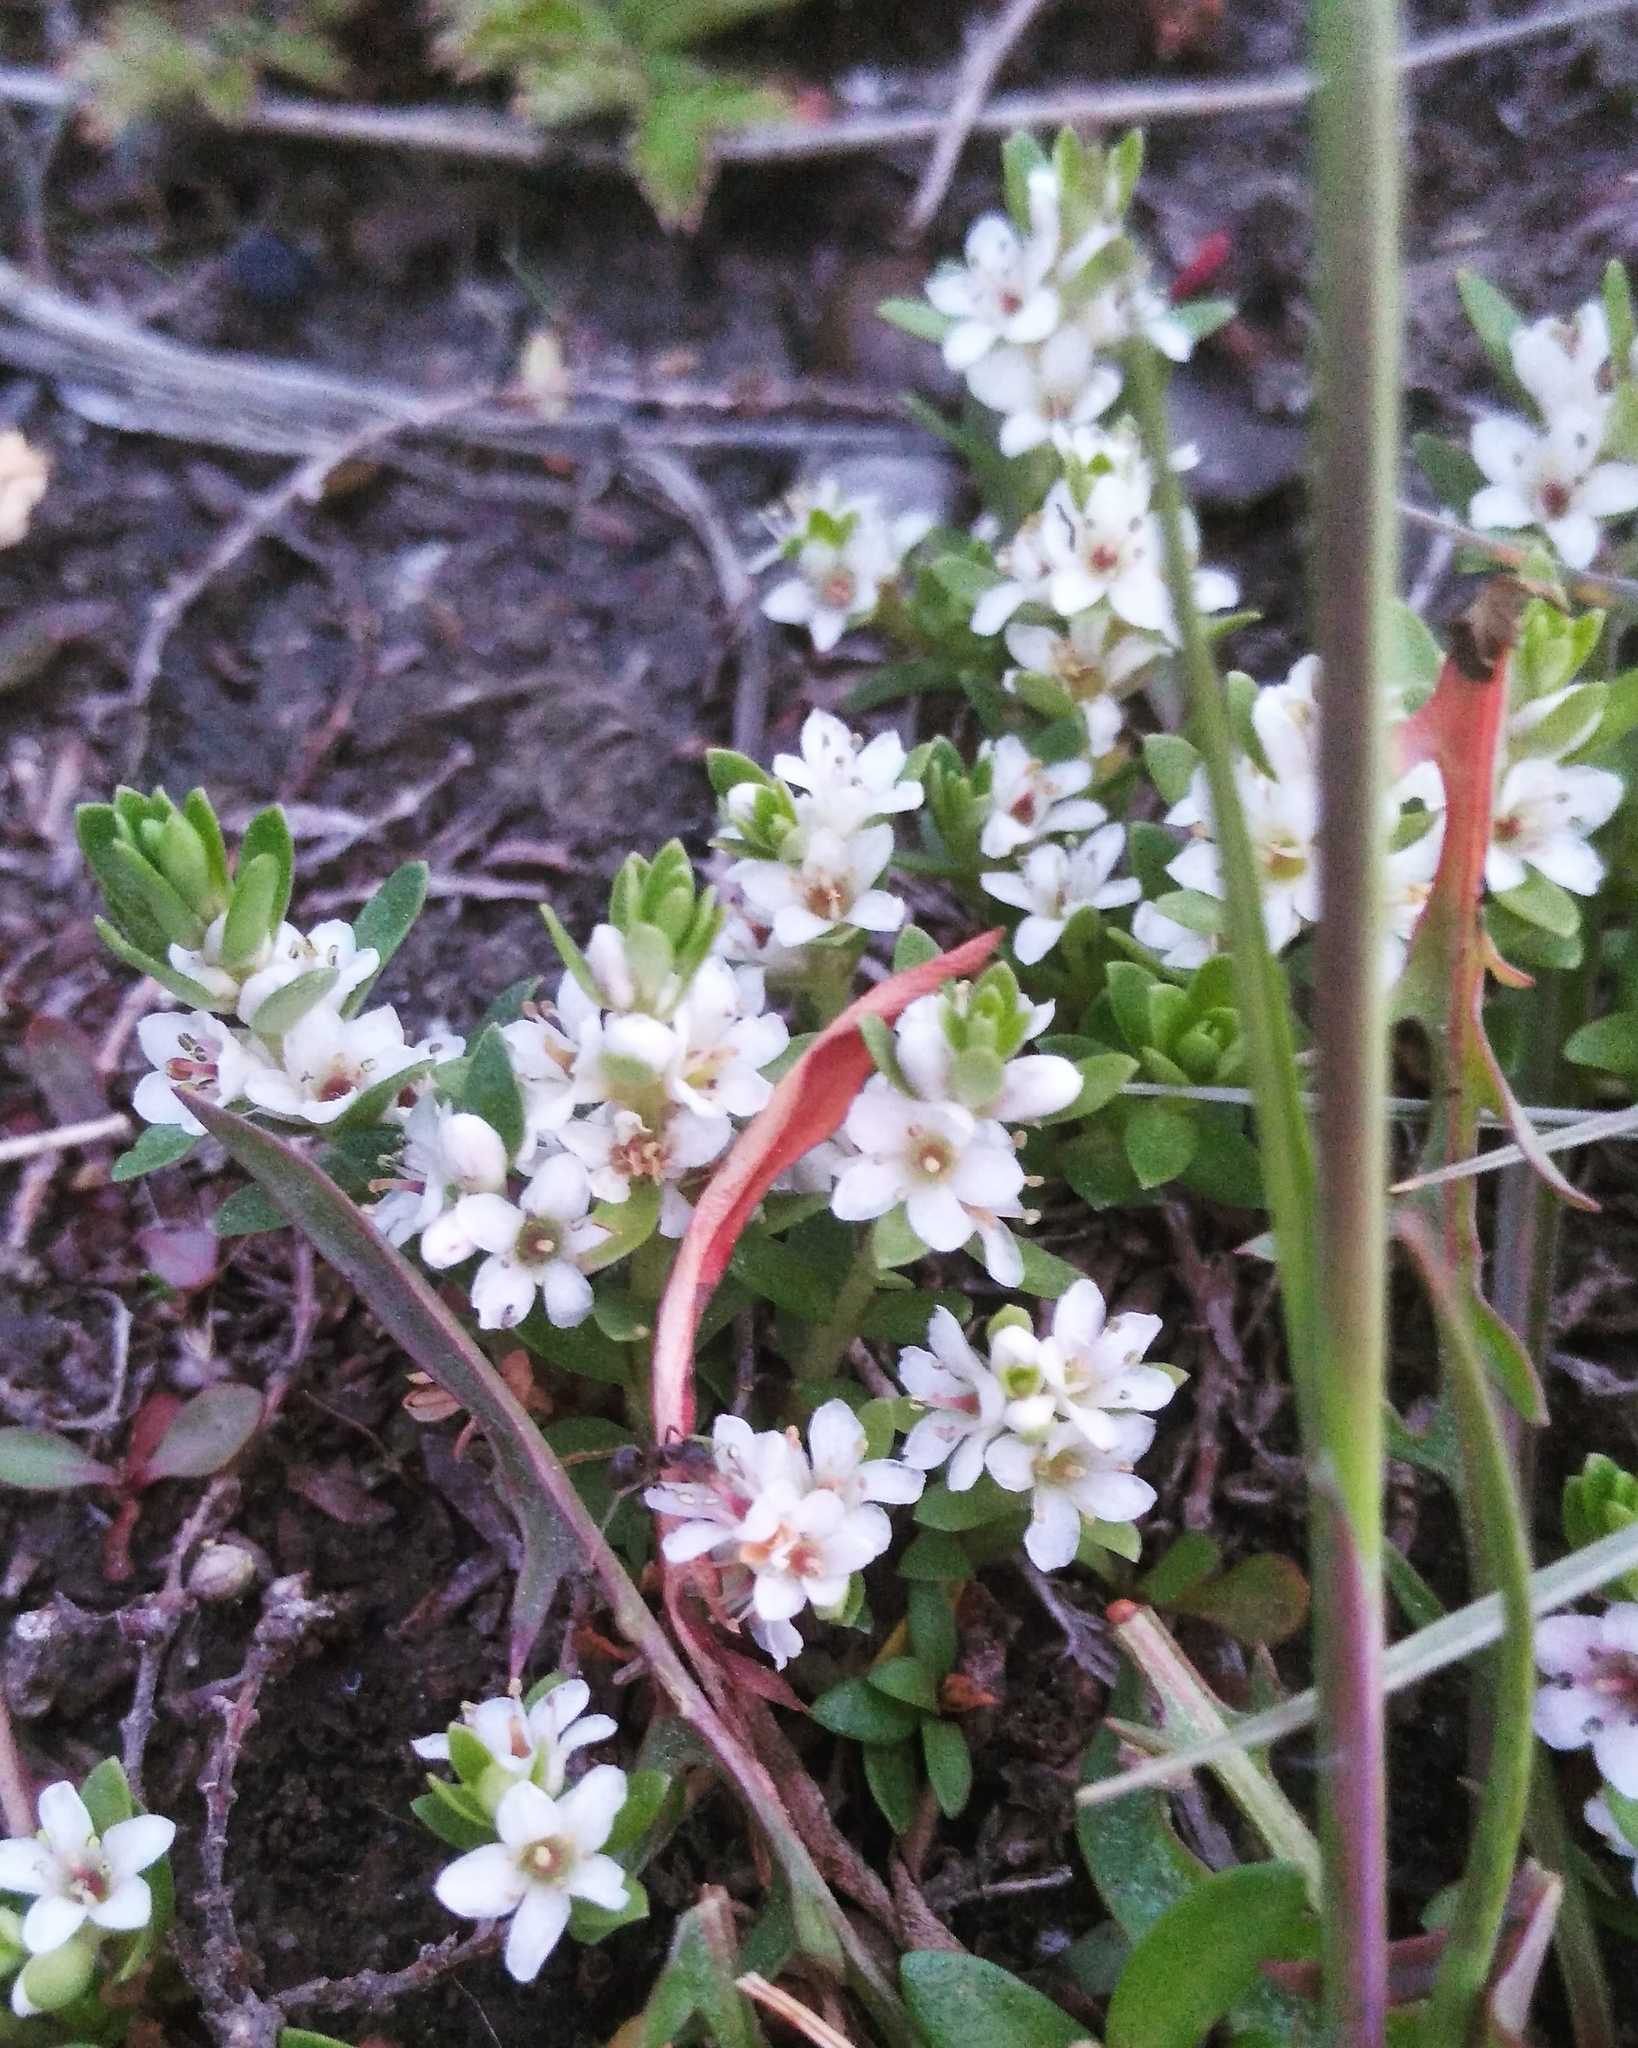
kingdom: Plantae
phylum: Tracheophyta
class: Magnoliopsida
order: Ericales
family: Primulaceae
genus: Lysimachia
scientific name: Lysimachia maritima
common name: Sea milkwort
